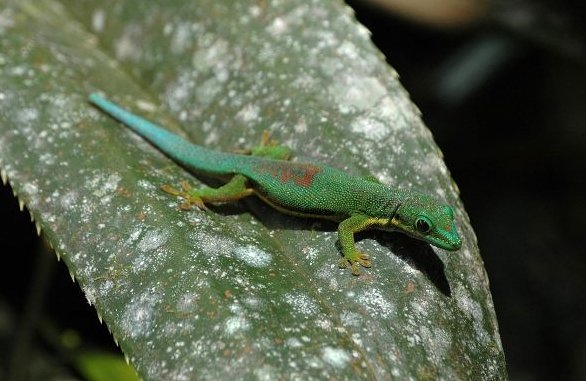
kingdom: Animalia
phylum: Chordata
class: Squamata
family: Gekkonidae
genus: Phelsuma
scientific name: Phelsuma lineata
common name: Lined day gecko
